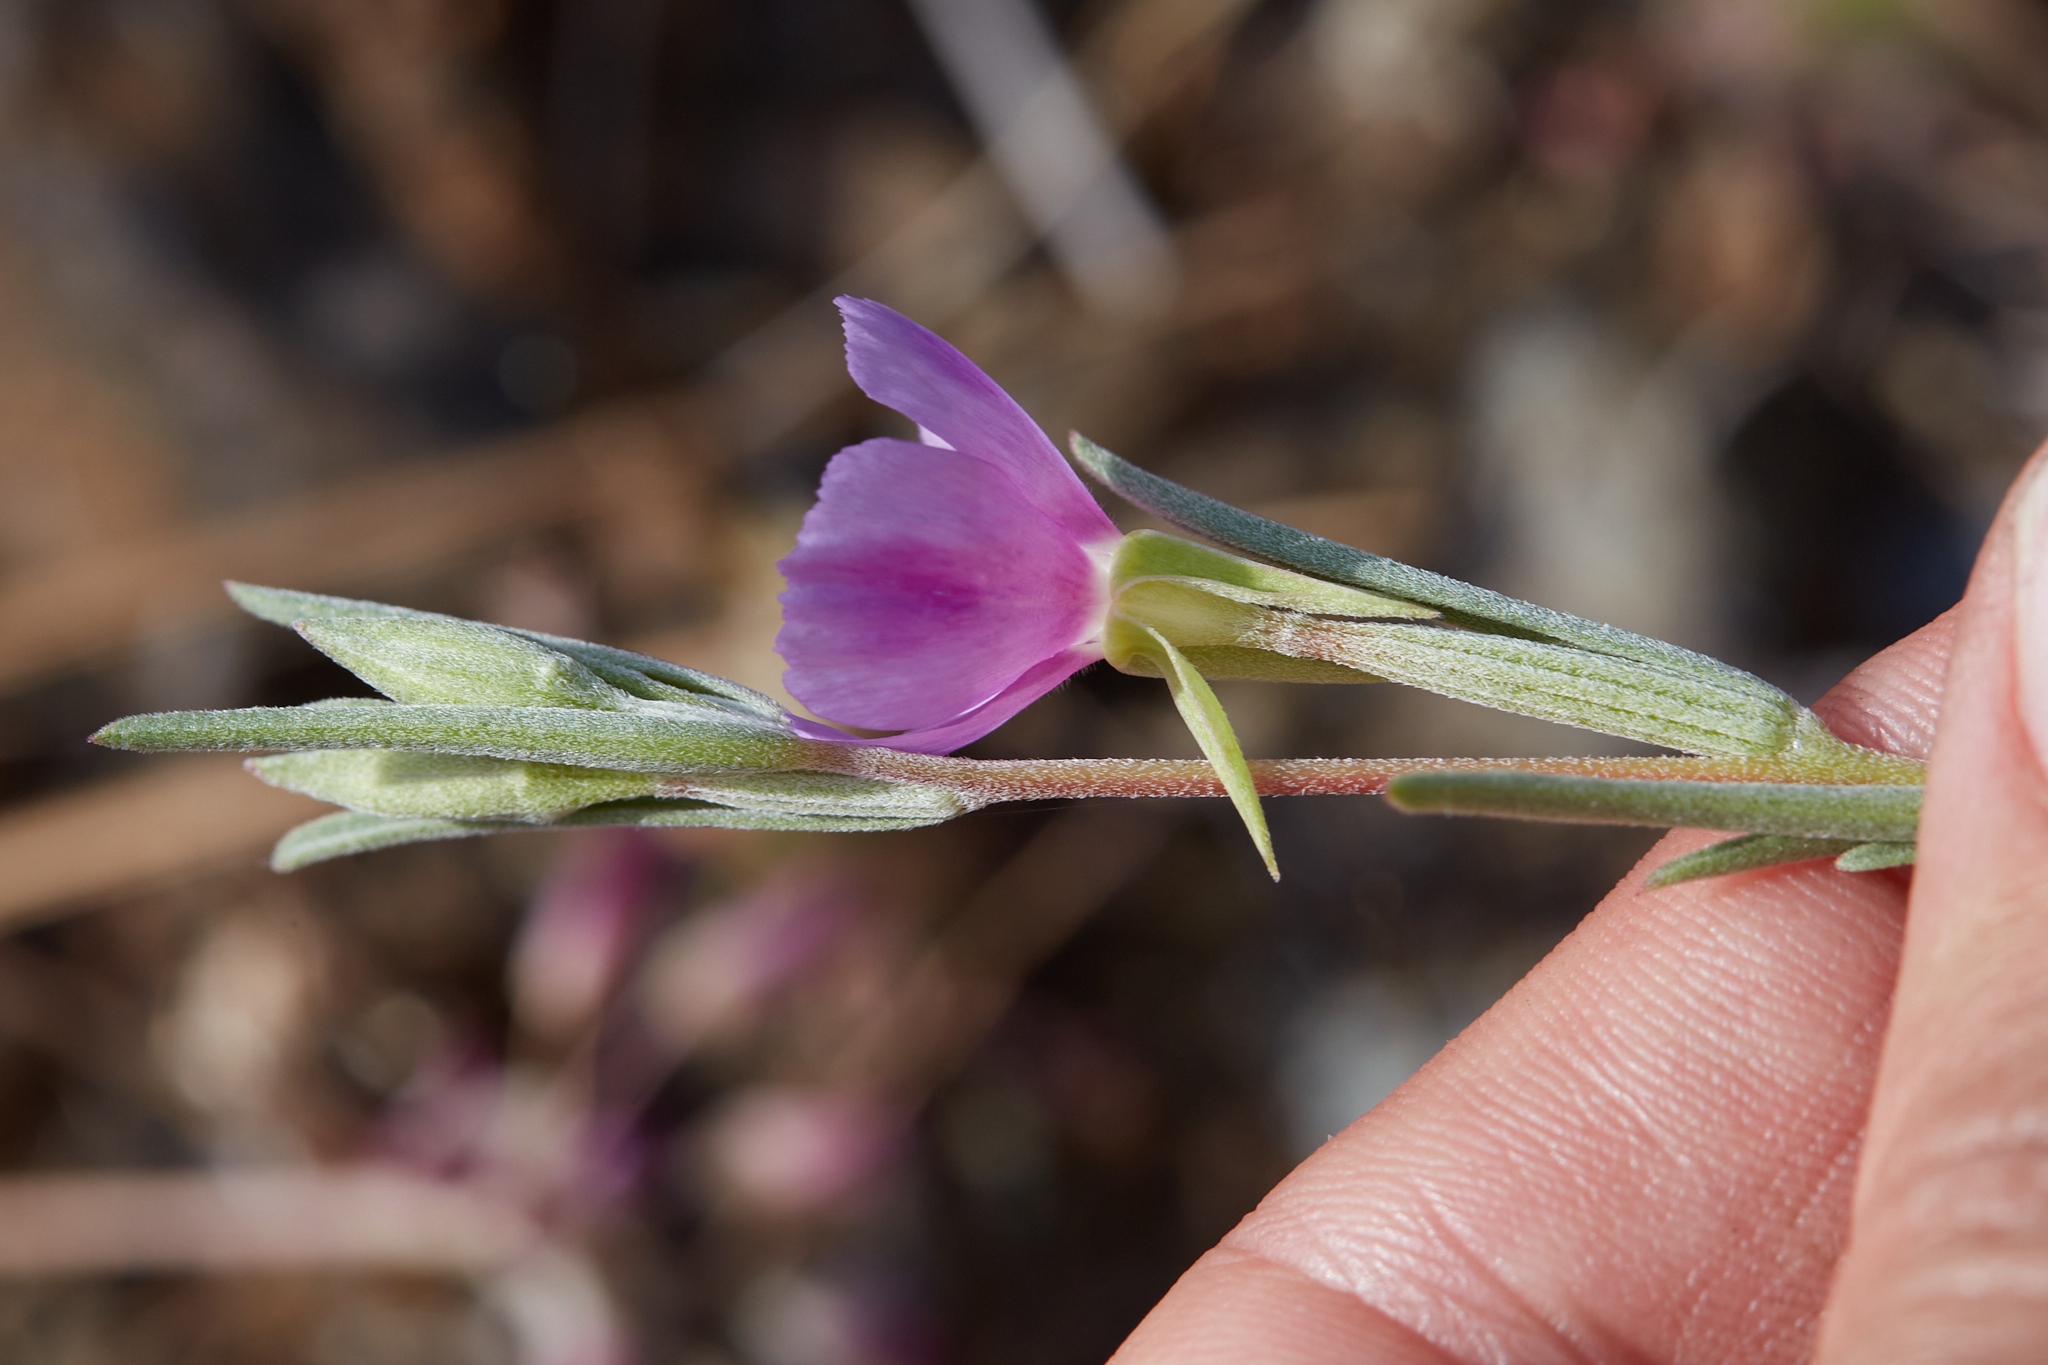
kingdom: Plantae
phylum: Tracheophyta
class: Magnoliopsida
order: Myrtales
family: Onagraceae
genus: Clarkia
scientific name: Clarkia purpurea
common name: Purple clarkia
